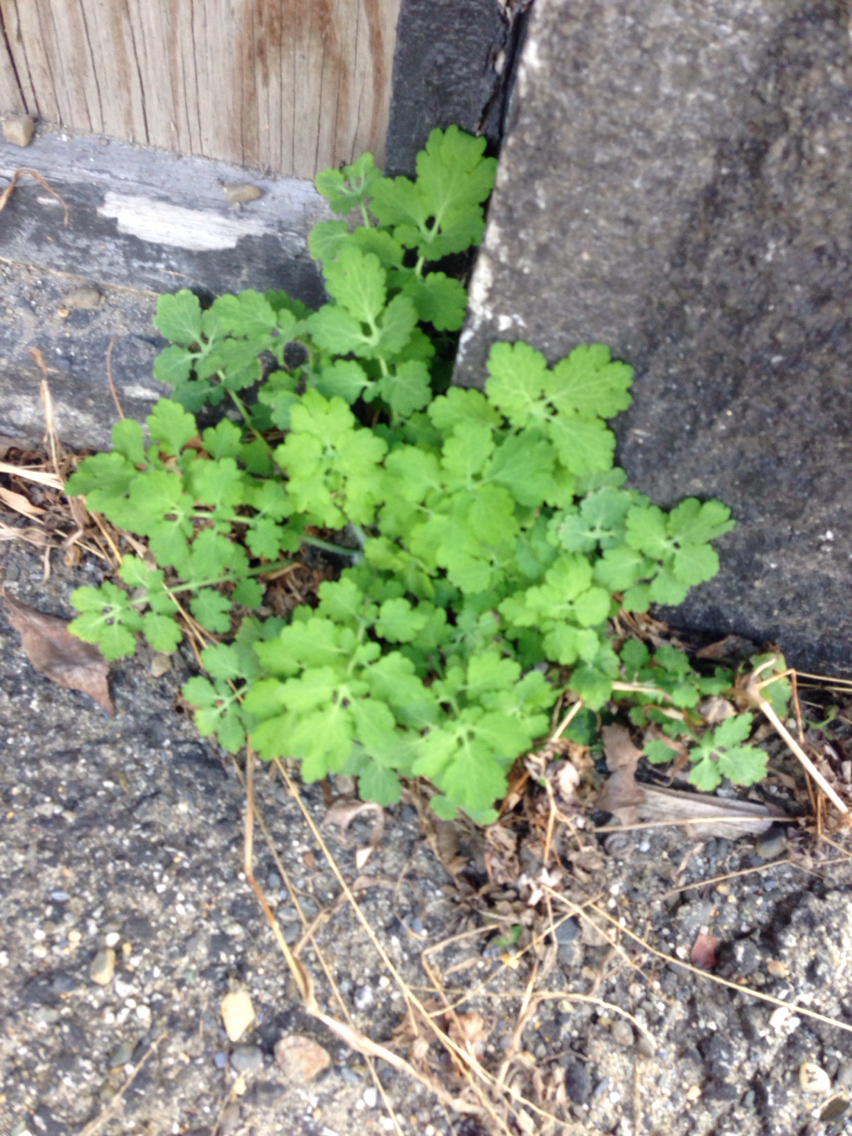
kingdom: Plantae
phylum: Tracheophyta
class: Magnoliopsida
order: Ranunculales
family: Papaveraceae
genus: Chelidonium
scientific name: Chelidonium majus
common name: Greater celandine
